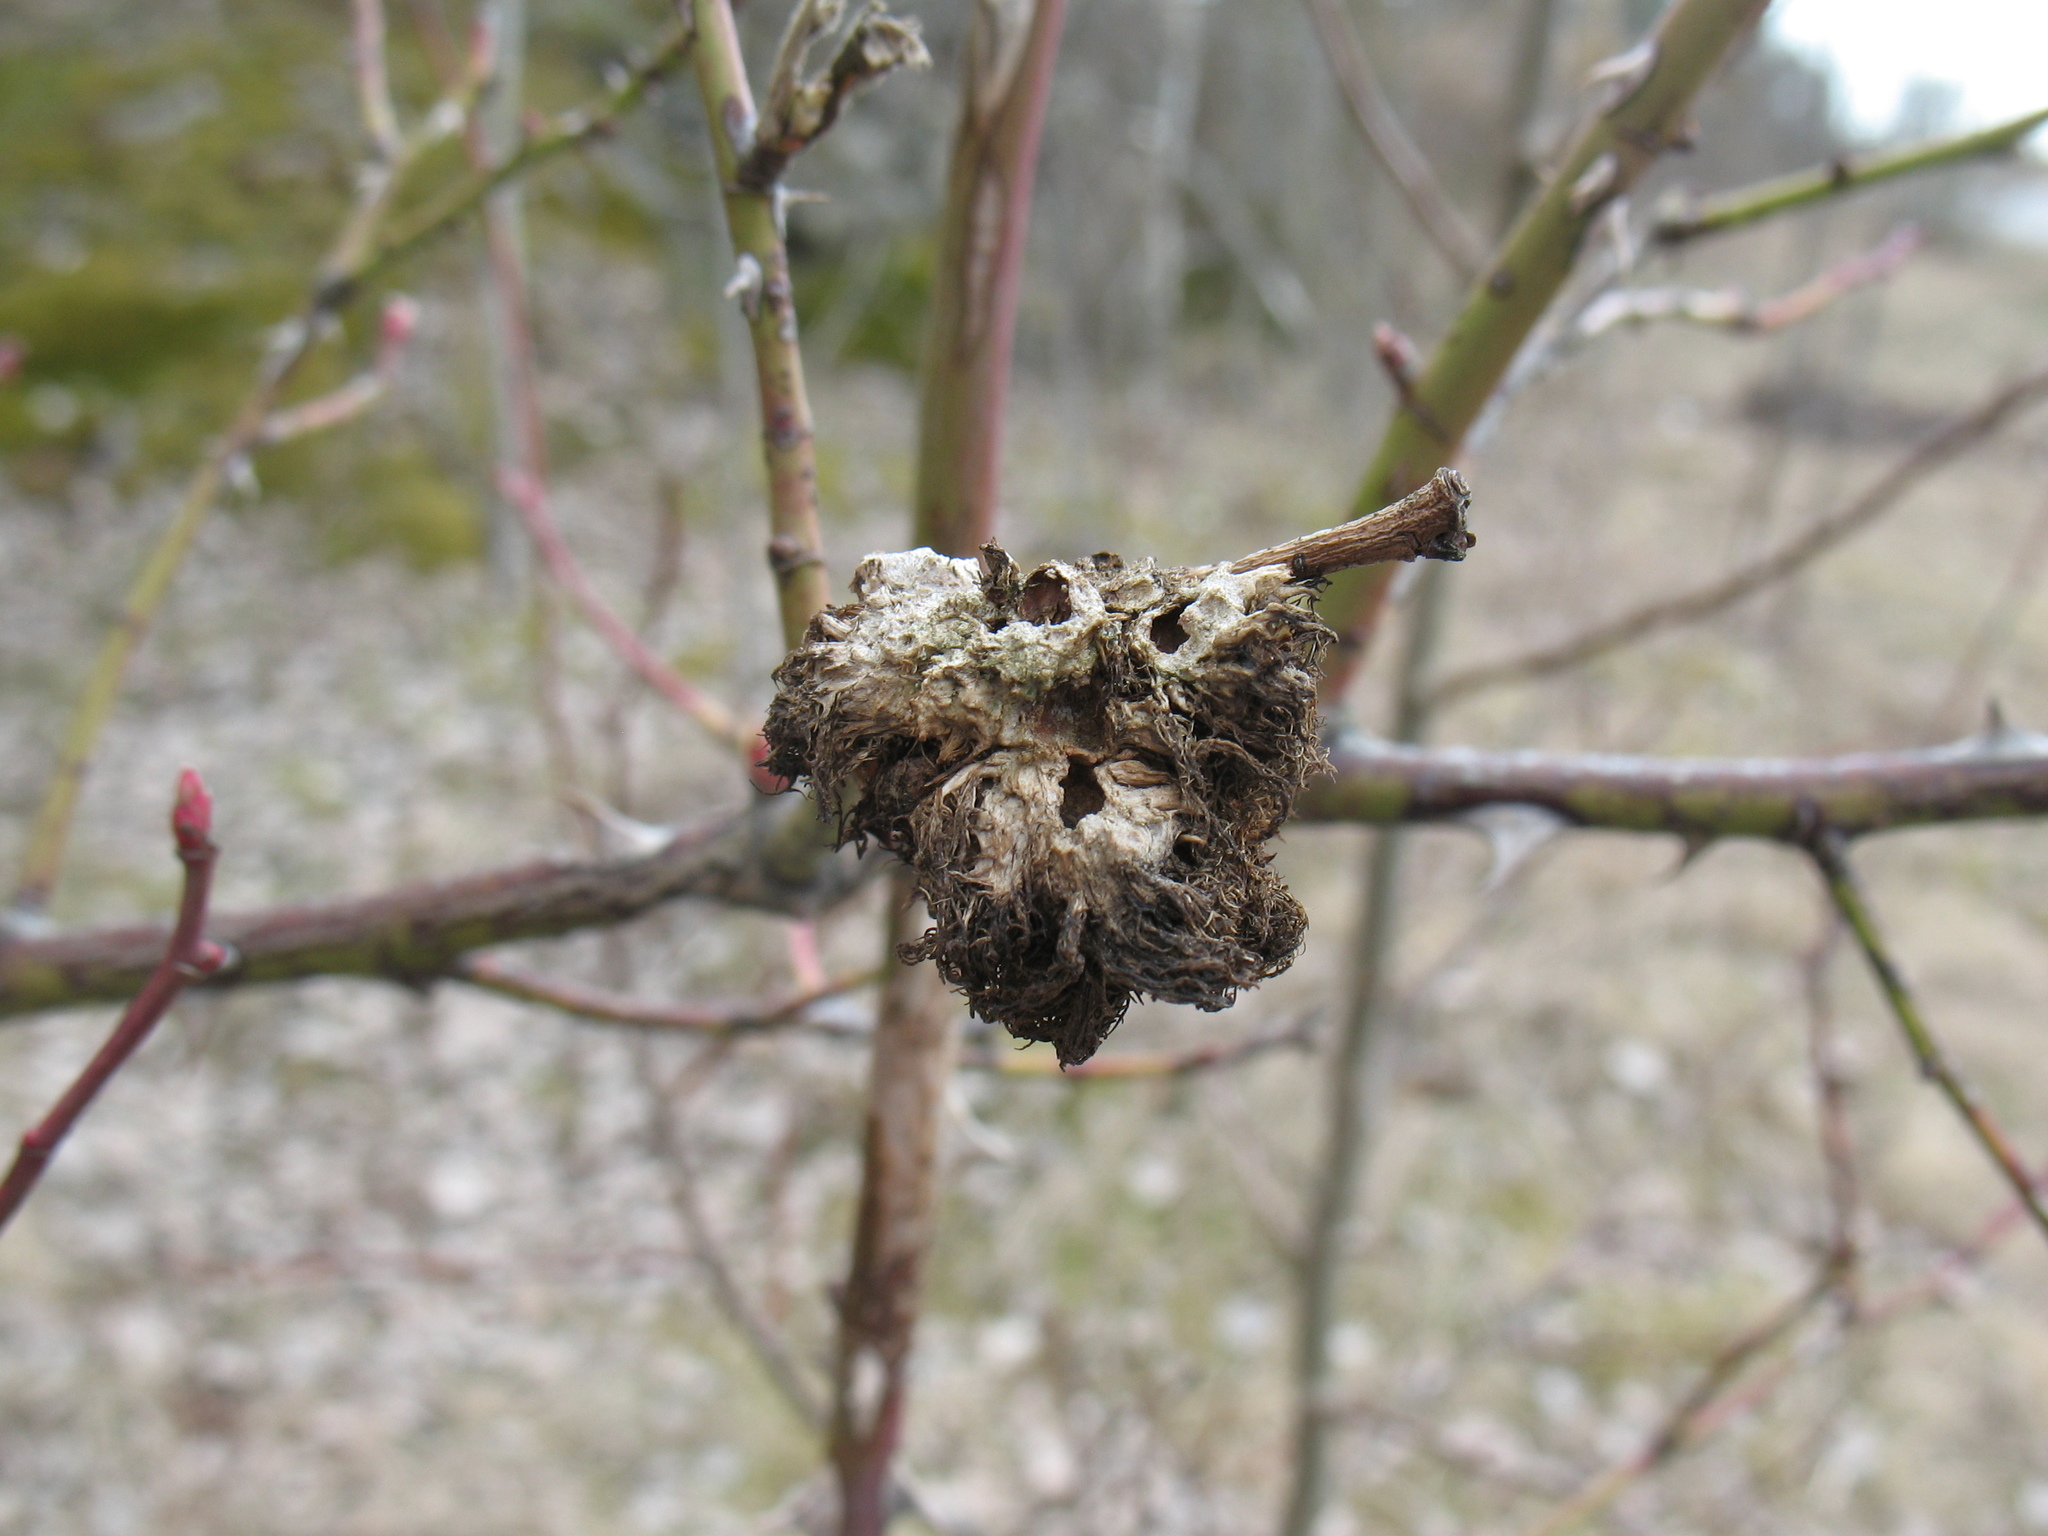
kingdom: Animalia
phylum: Arthropoda
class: Insecta
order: Hymenoptera
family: Cynipidae
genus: Diplolepis
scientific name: Diplolepis rosae
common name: Bedeguar gall
